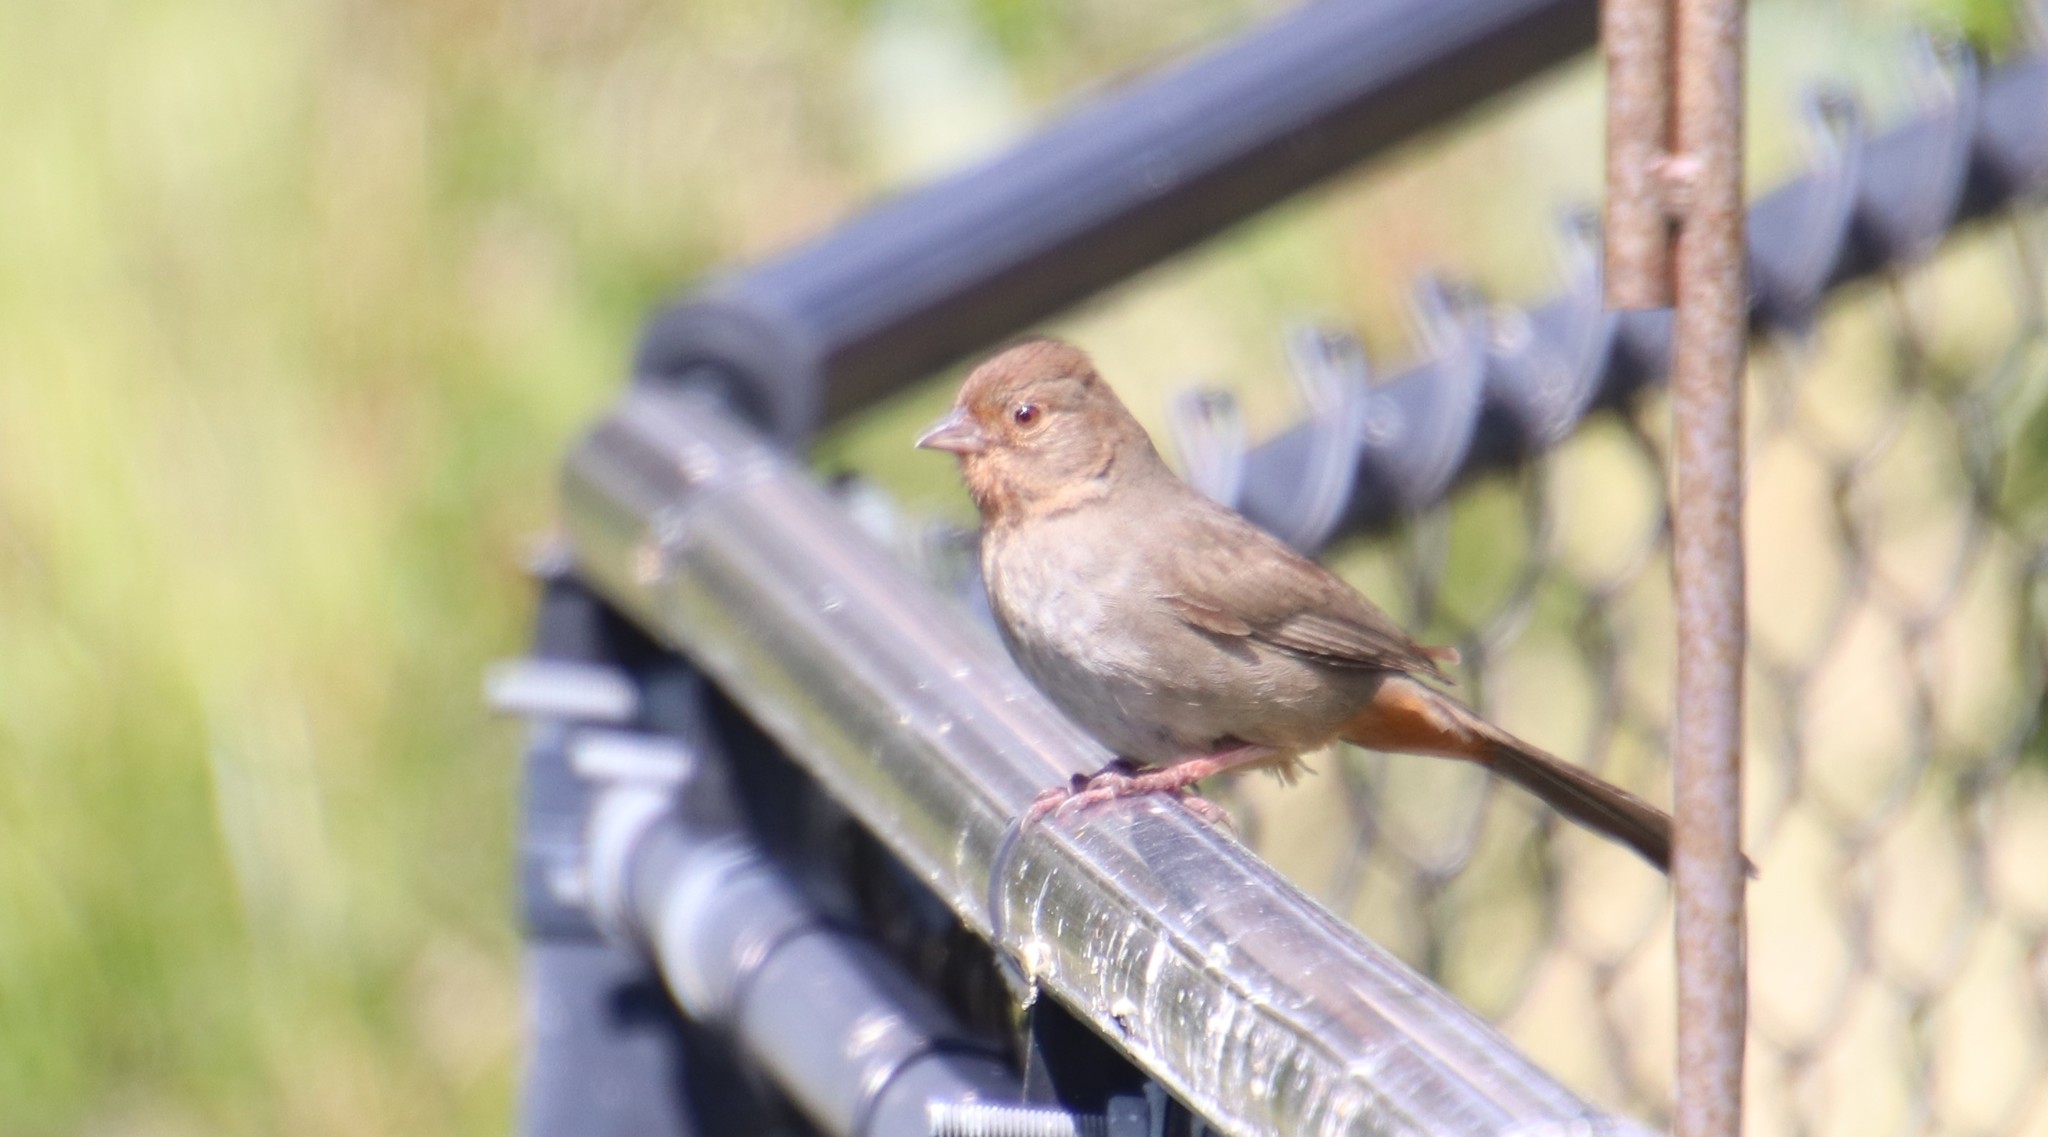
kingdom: Animalia
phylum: Chordata
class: Aves
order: Passeriformes
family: Passerellidae
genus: Melozone
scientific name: Melozone crissalis
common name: California towhee
